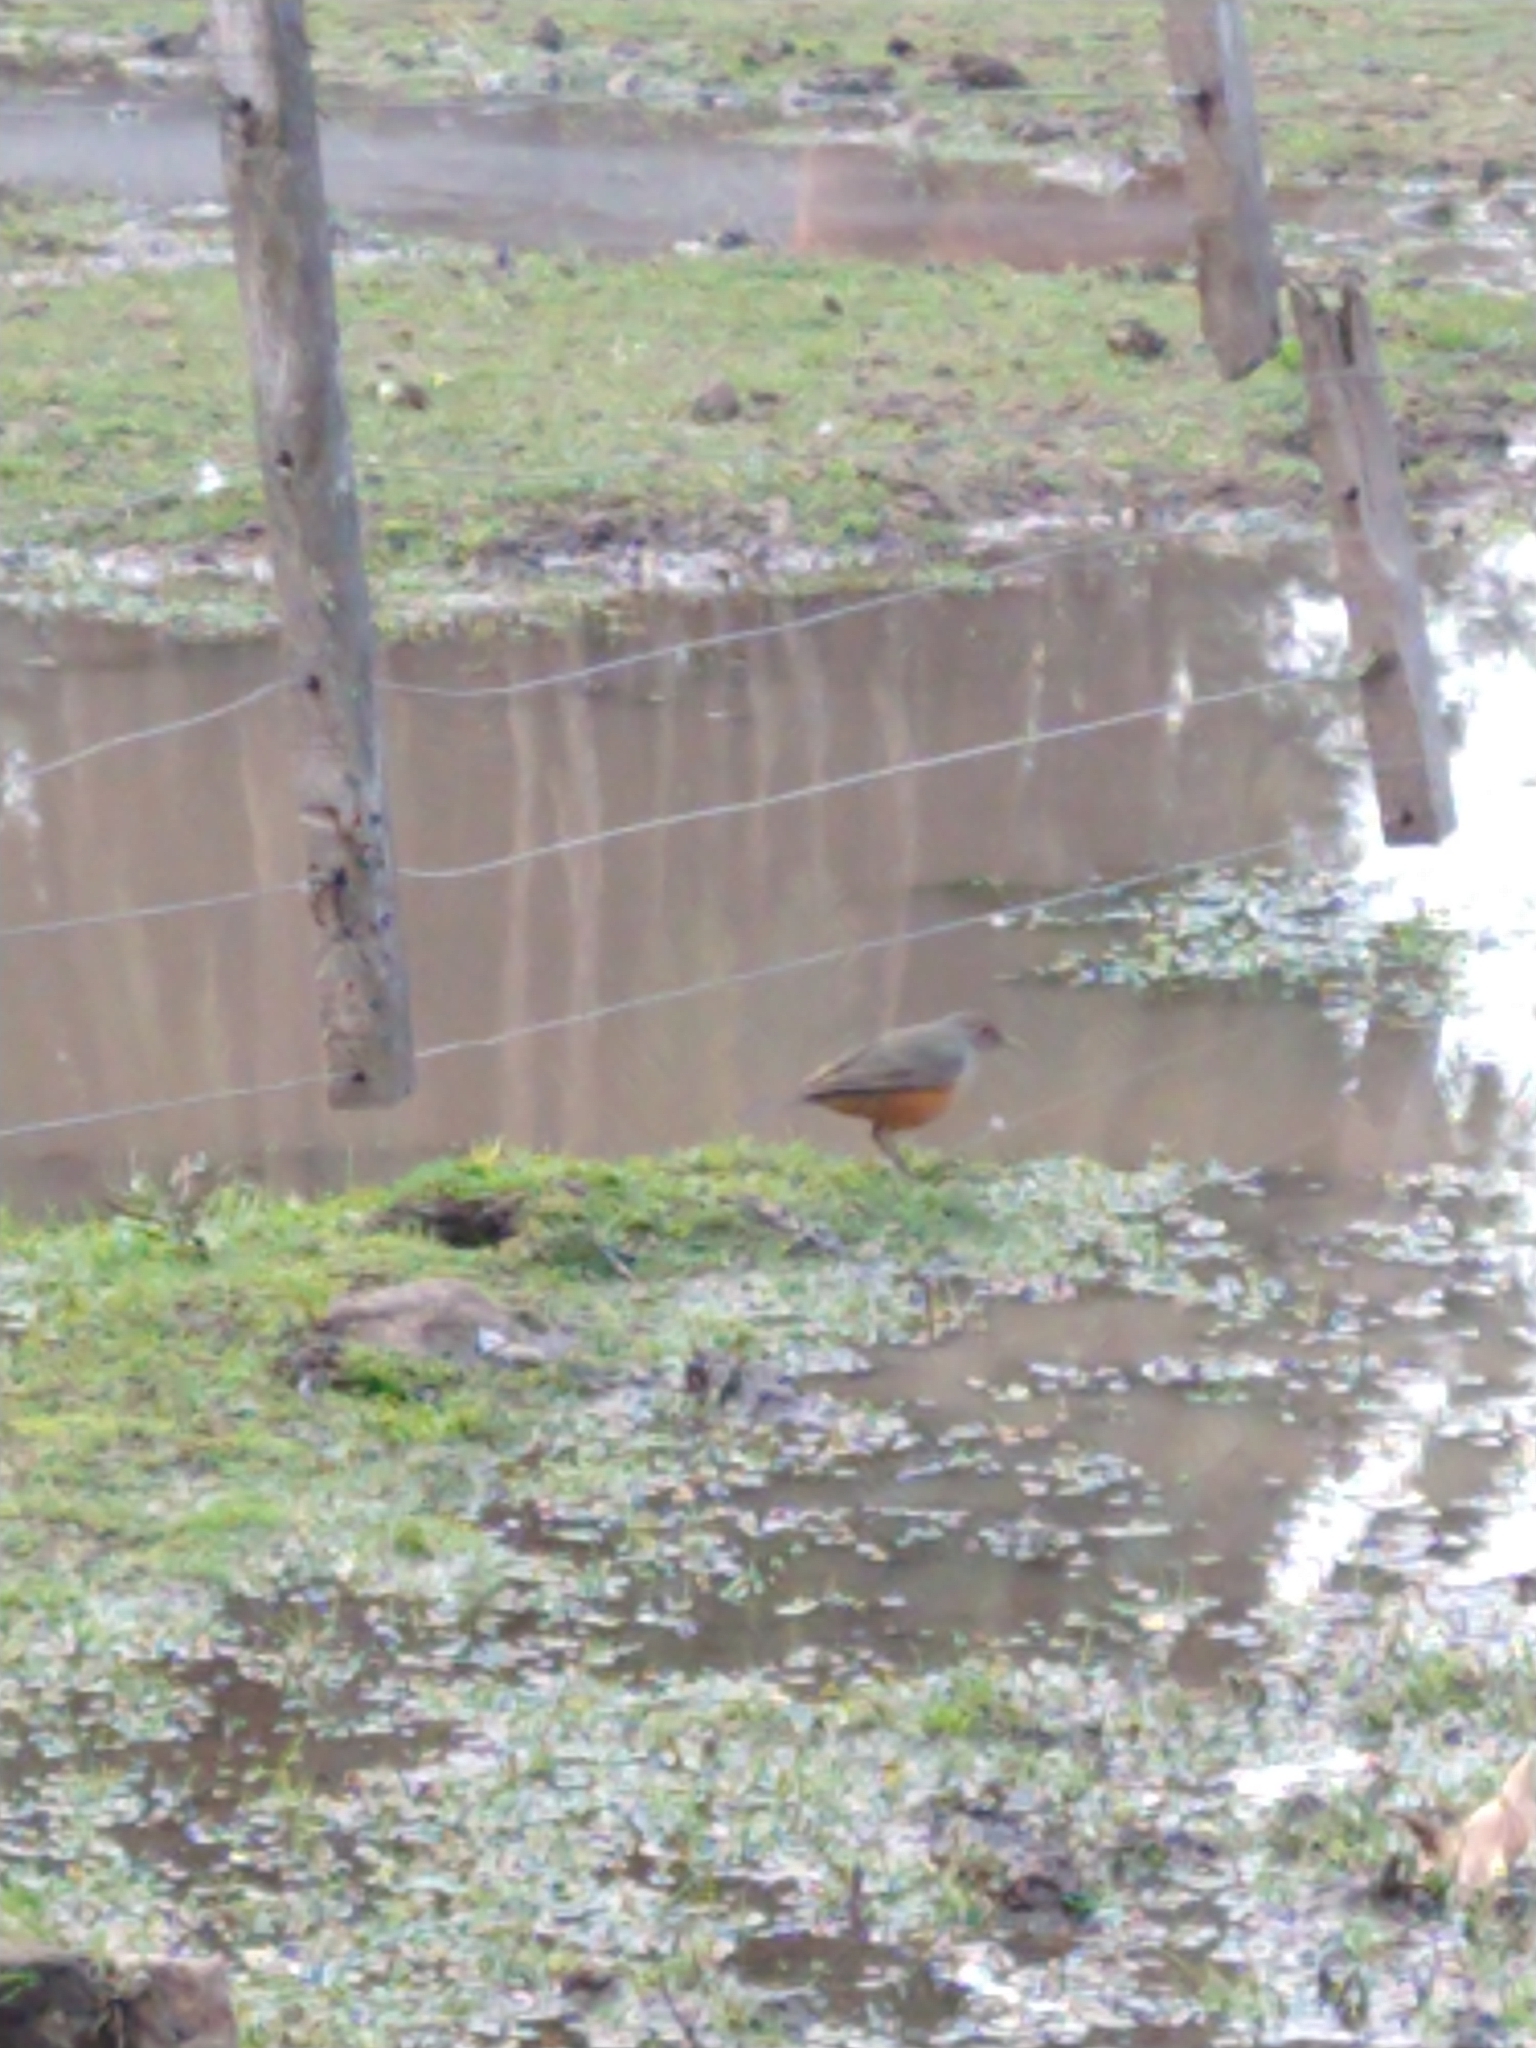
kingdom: Animalia
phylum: Chordata
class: Aves
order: Passeriformes
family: Turdidae
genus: Turdus
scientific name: Turdus rufiventris
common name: Rufous-bellied thrush
